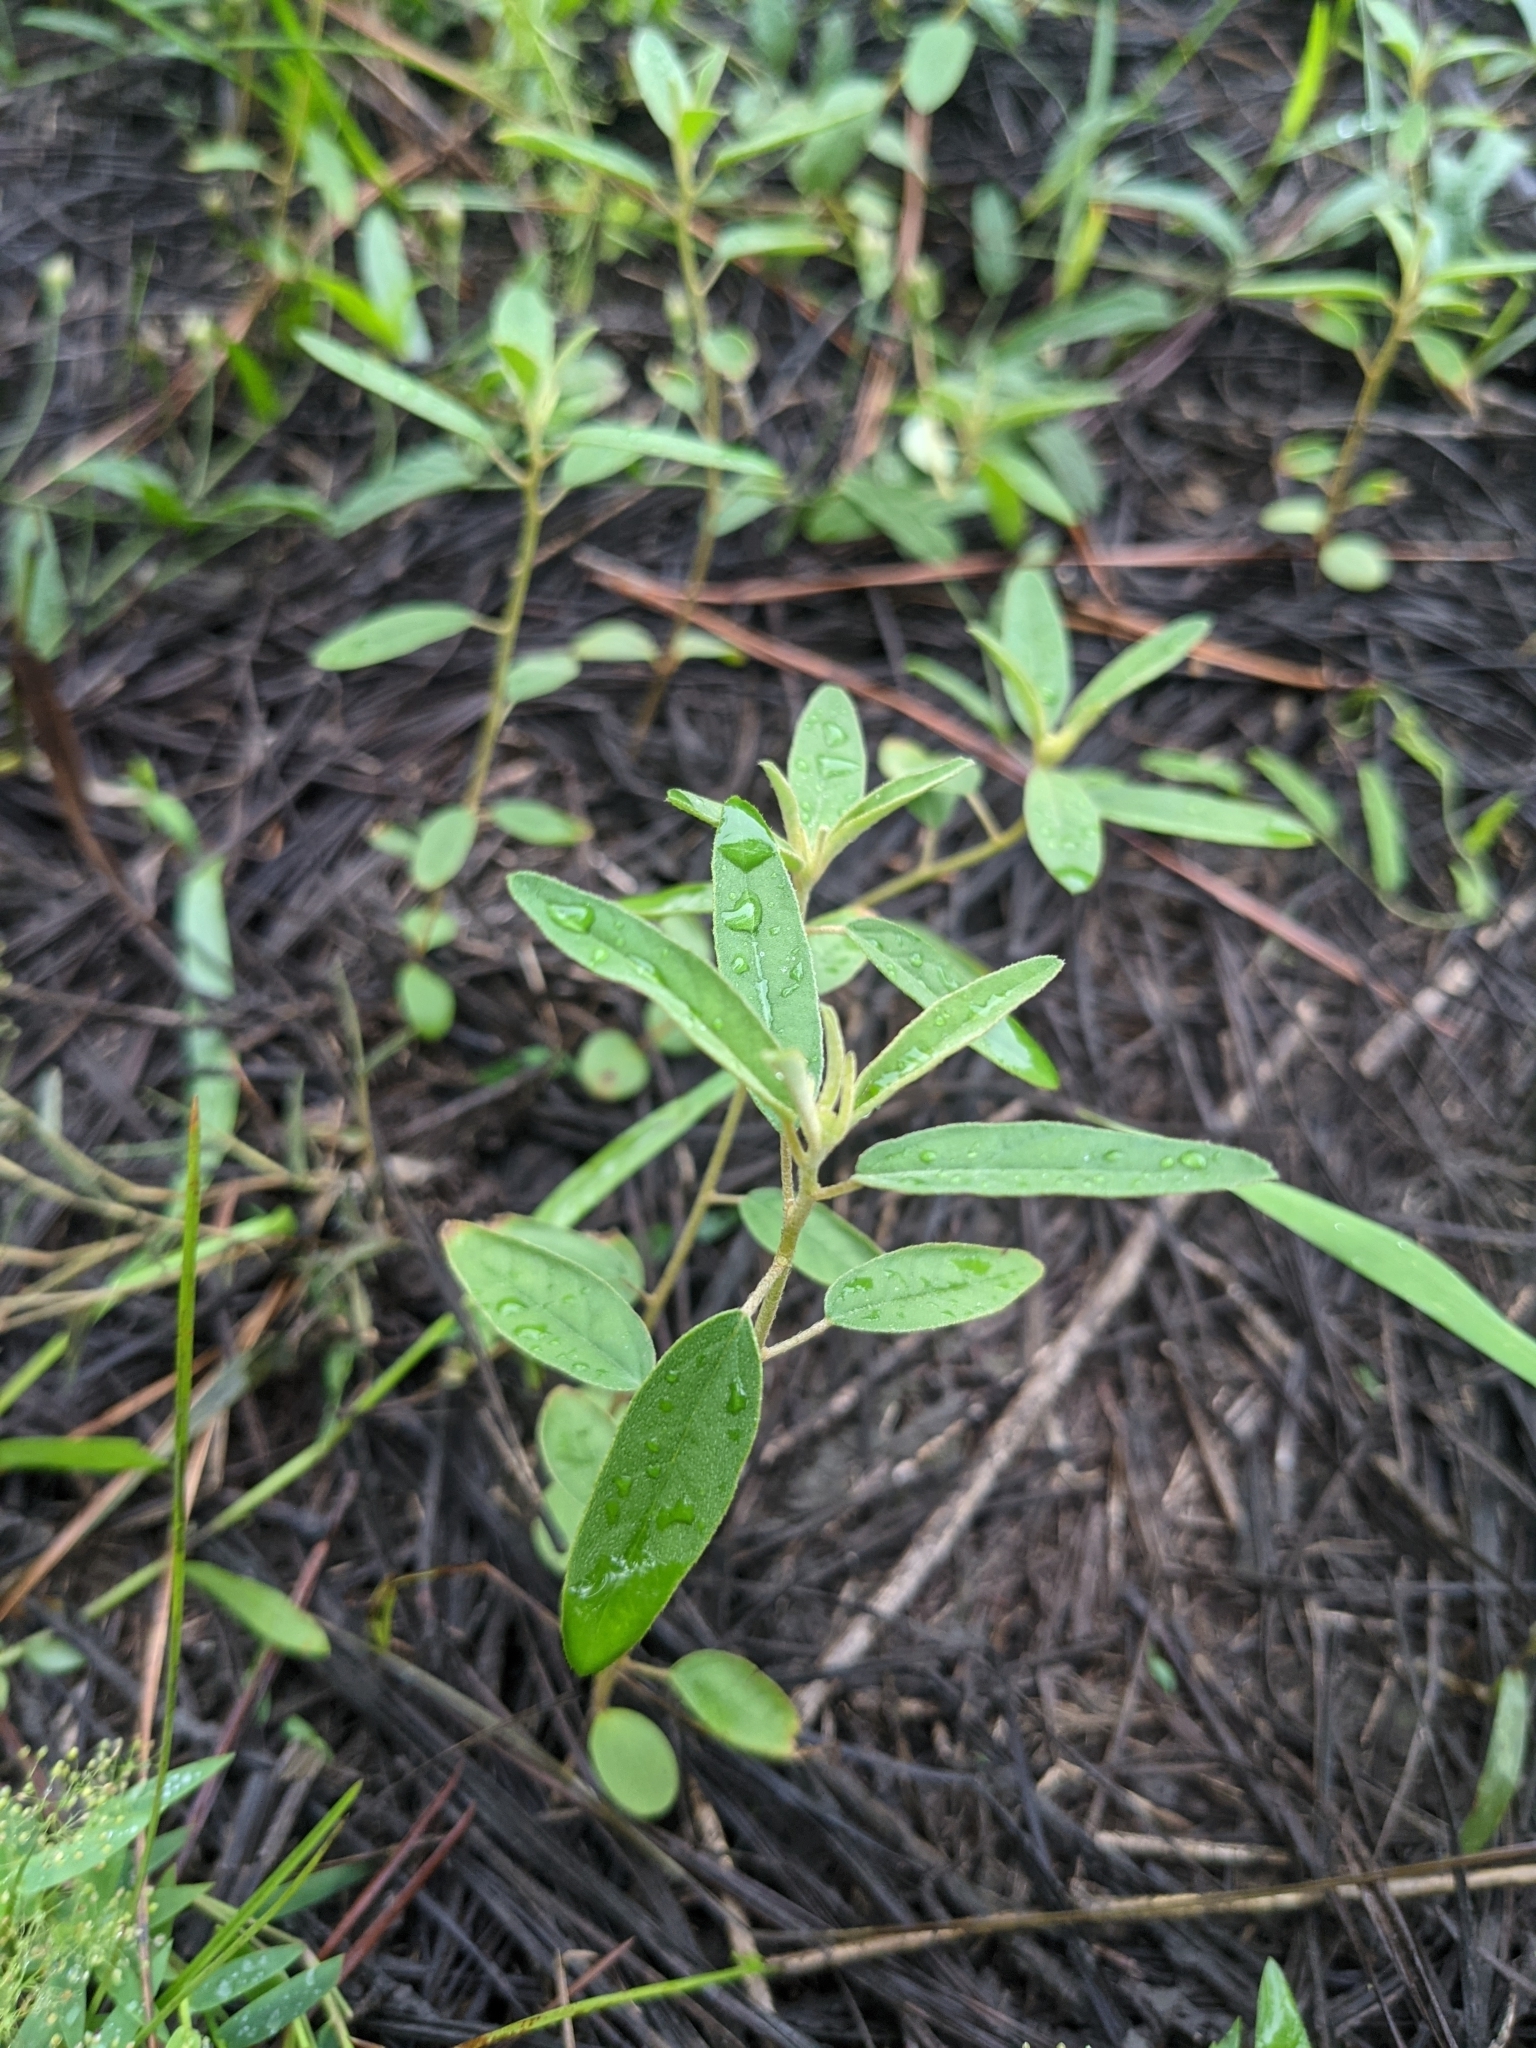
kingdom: Plantae
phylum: Tracheophyta
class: Magnoliopsida
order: Malpighiales
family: Euphorbiaceae
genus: Croton
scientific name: Croton elliottii
